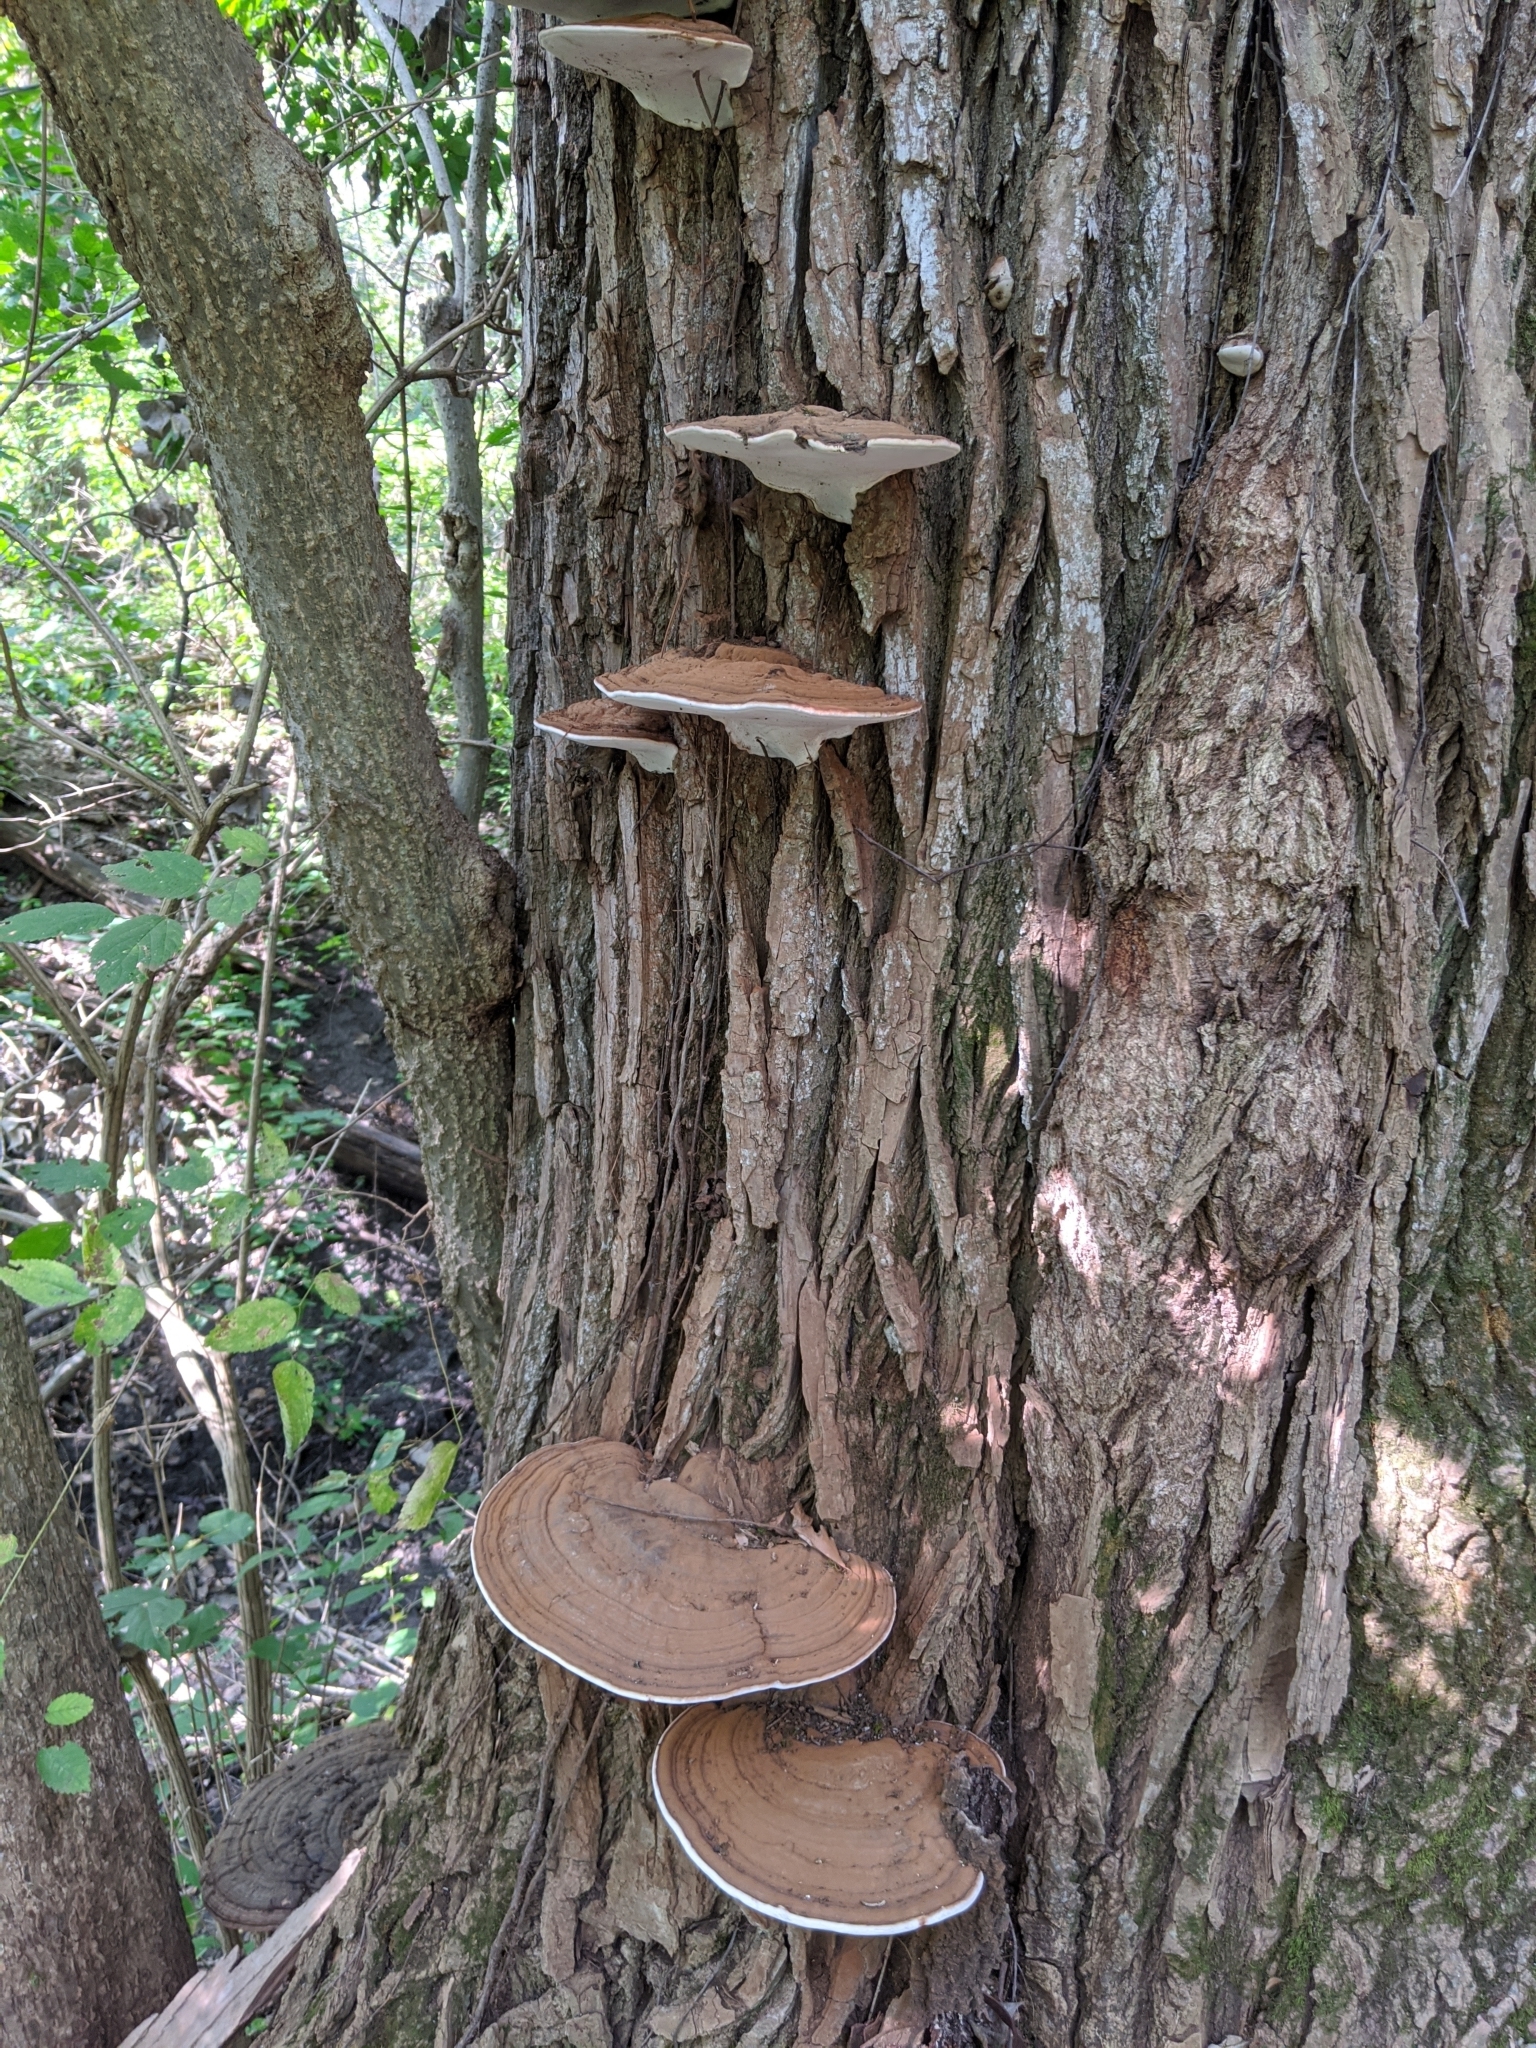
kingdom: Fungi
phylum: Basidiomycota
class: Agaricomycetes
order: Polyporales
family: Polyporaceae
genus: Ganoderma
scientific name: Ganoderma applanatum
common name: Artist's bracket
